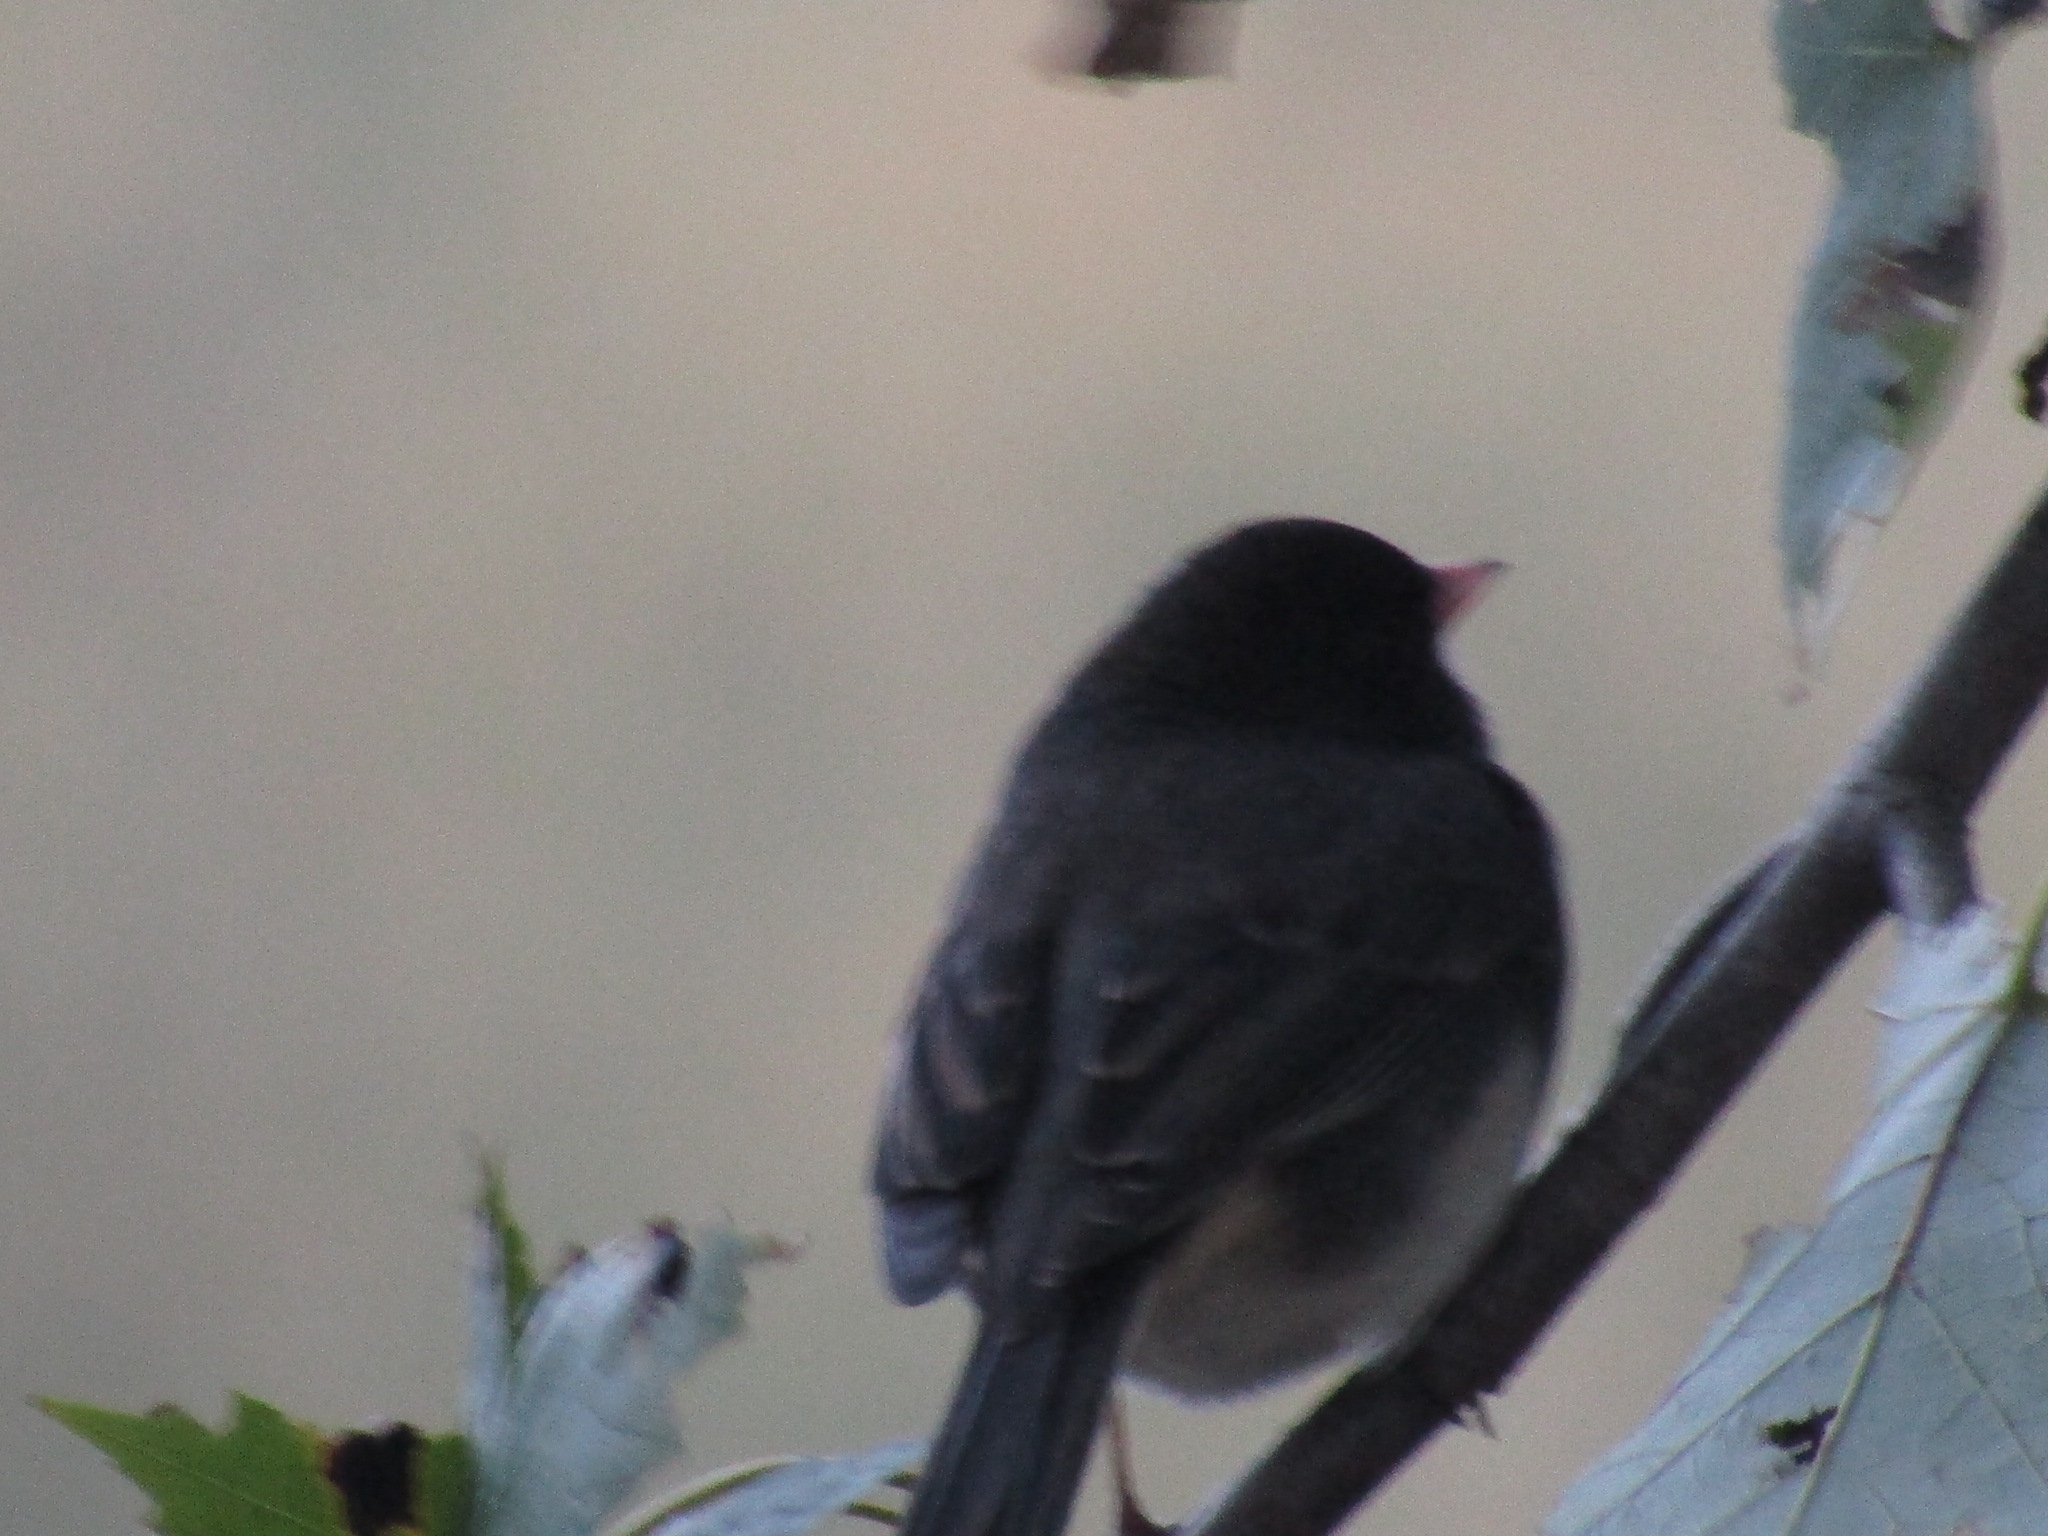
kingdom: Animalia
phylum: Chordata
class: Aves
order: Passeriformes
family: Passerellidae
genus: Junco
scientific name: Junco hyemalis
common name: Dark-eyed junco
